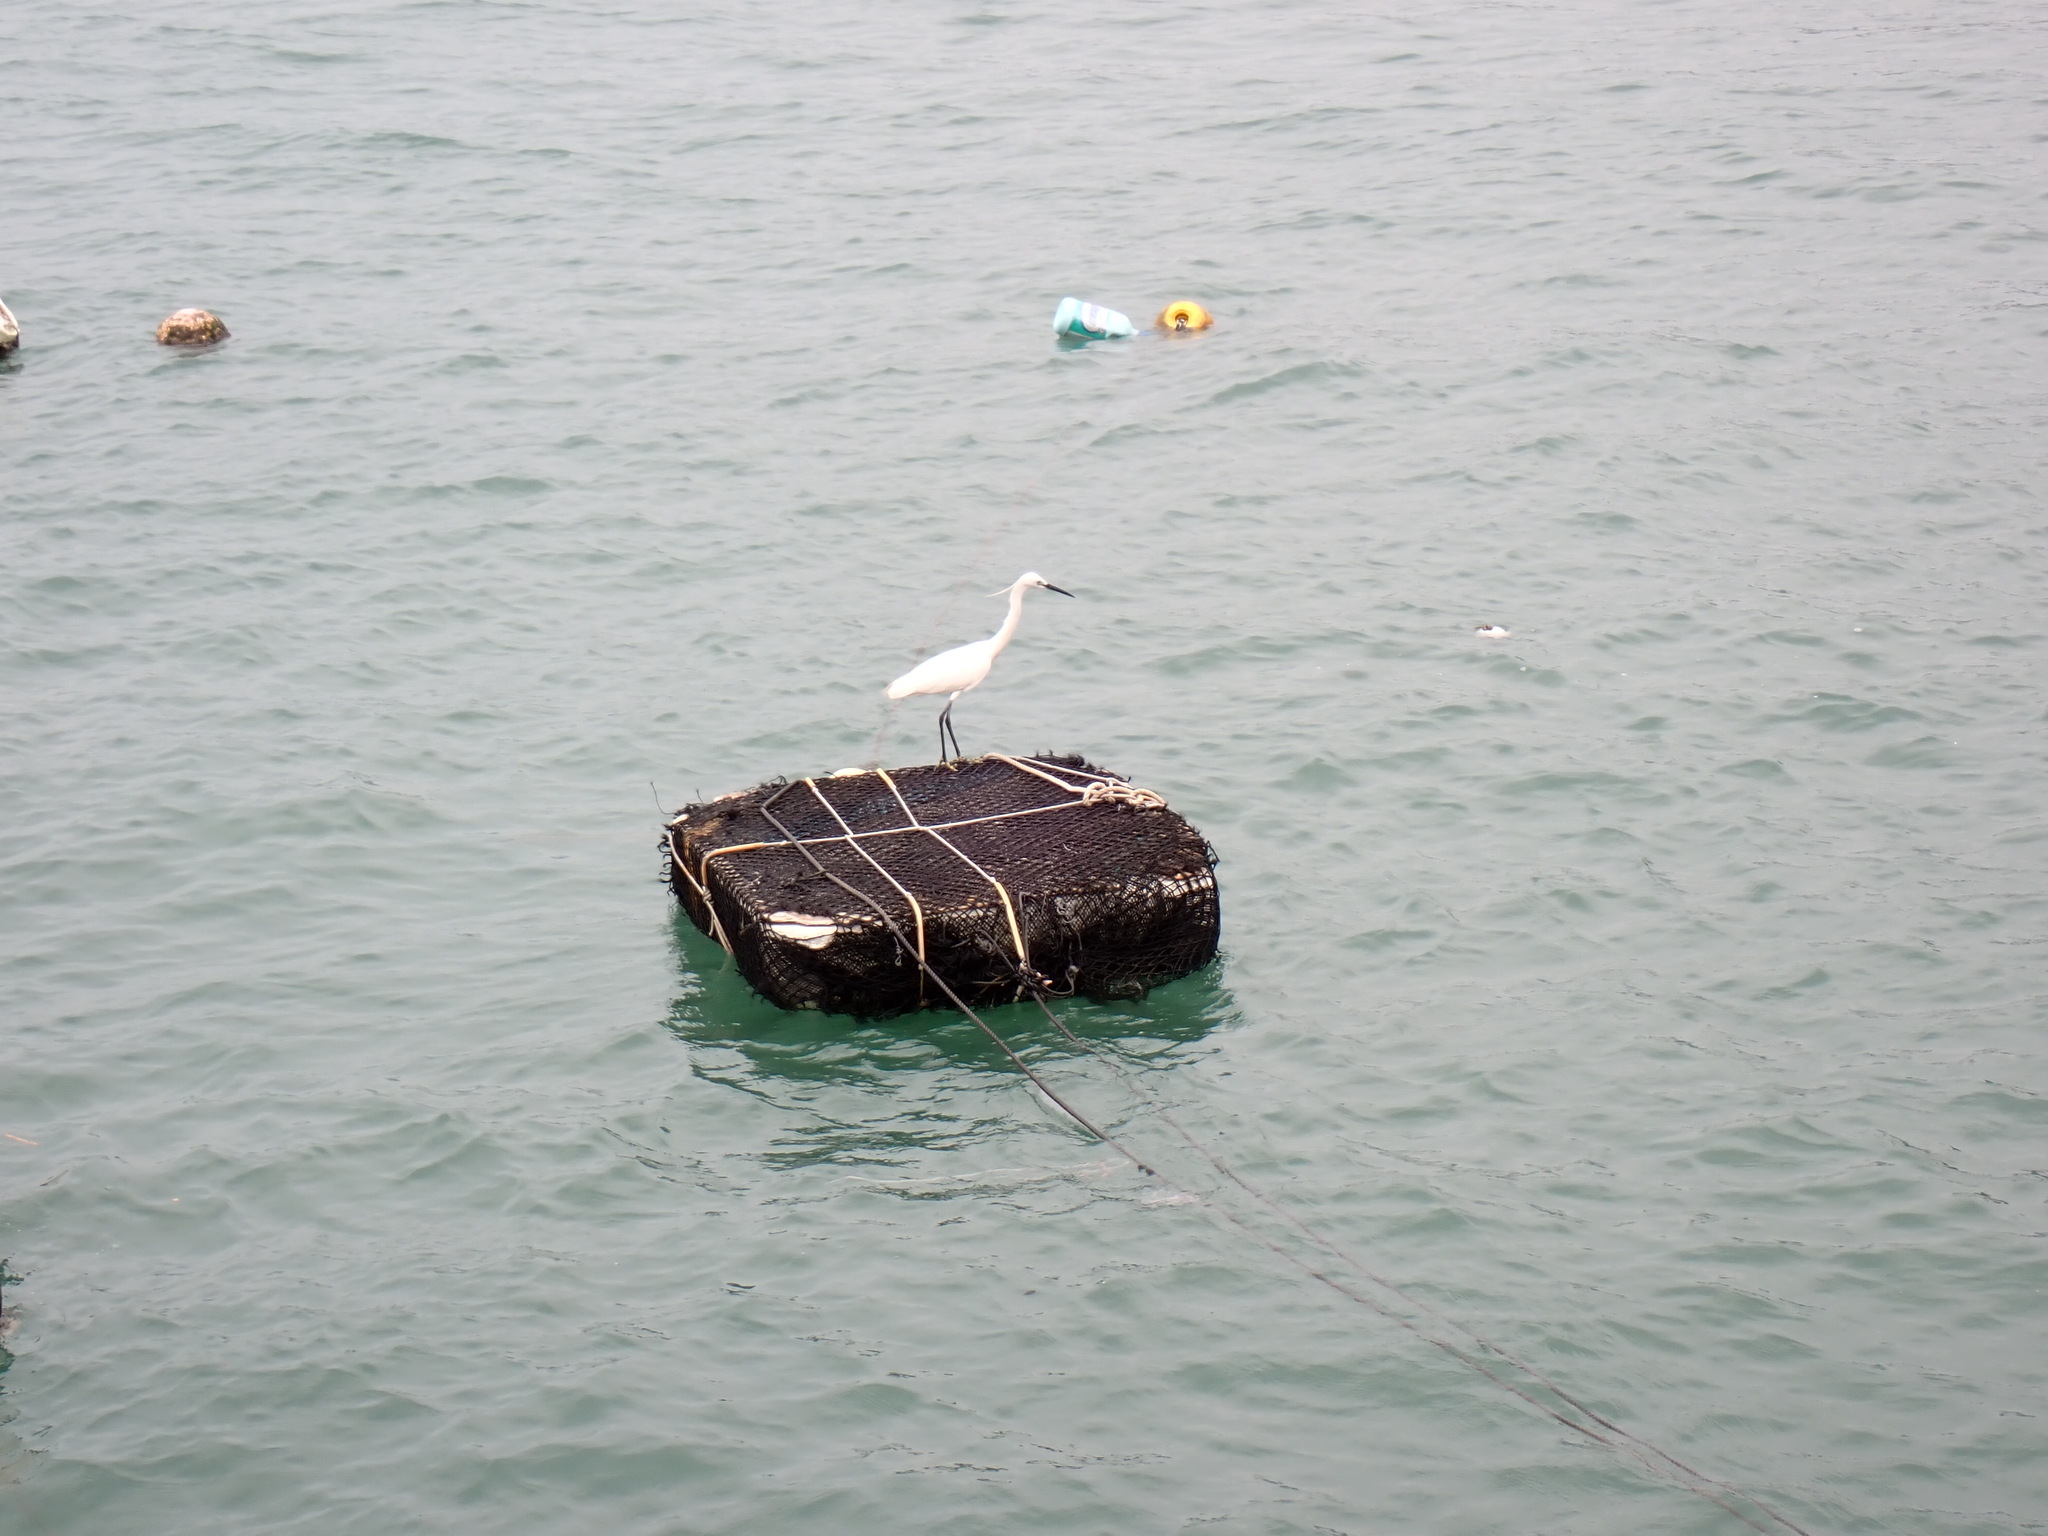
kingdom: Animalia
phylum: Chordata
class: Aves
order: Pelecaniformes
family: Ardeidae
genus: Egretta
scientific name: Egretta garzetta
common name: Little egret
